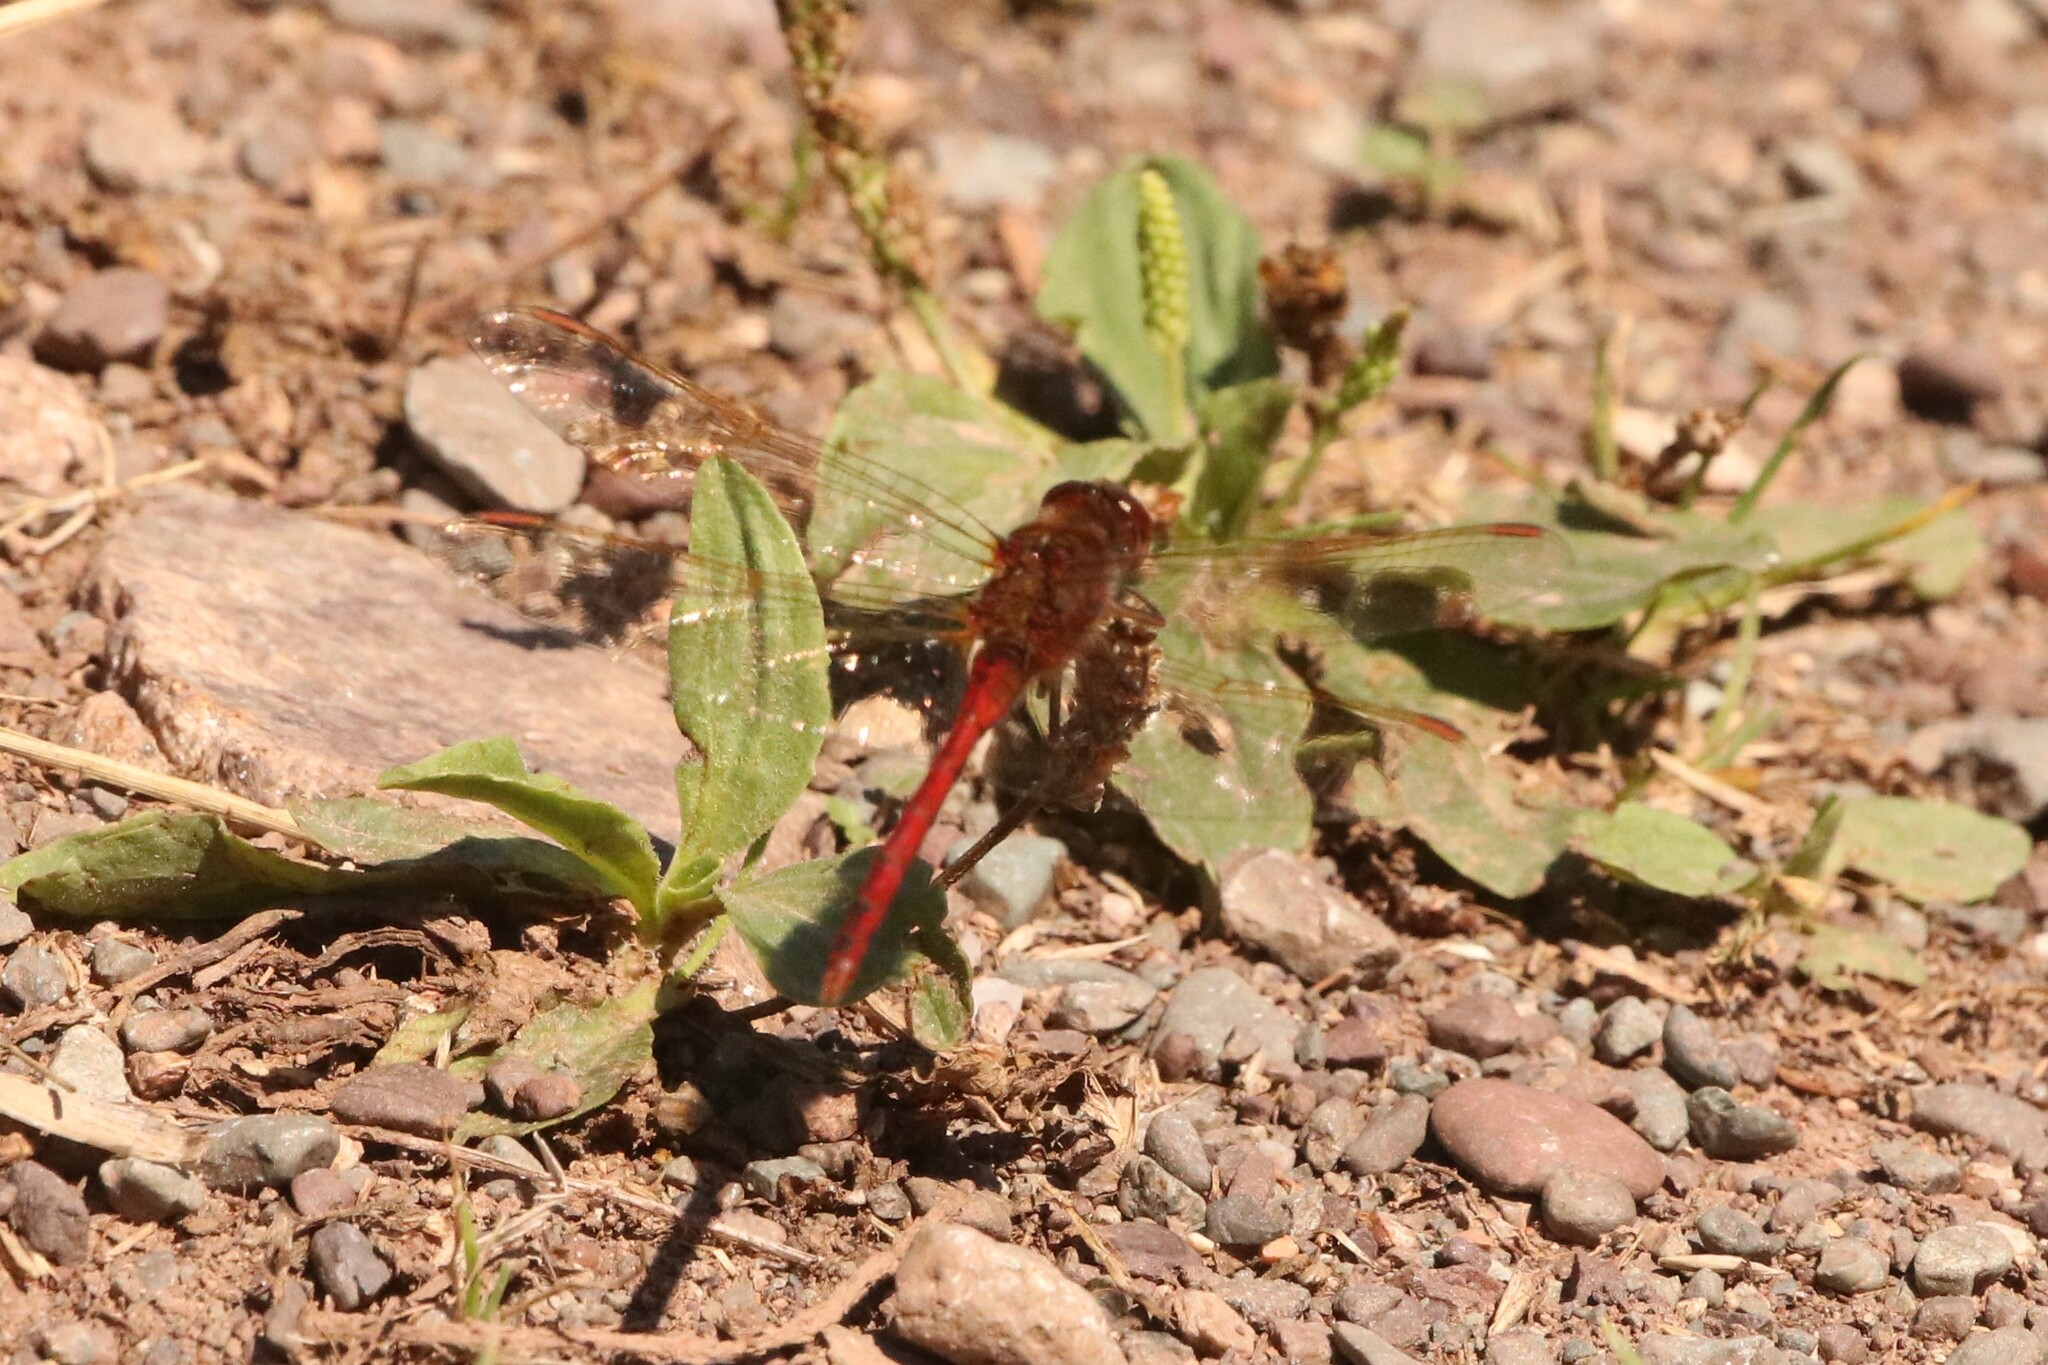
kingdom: Animalia
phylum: Arthropoda
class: Insecta
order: Odonata
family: Libellulidae
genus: Sympetrum
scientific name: Sympetrum costiferum
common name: Saffron-winged meadowhawk
